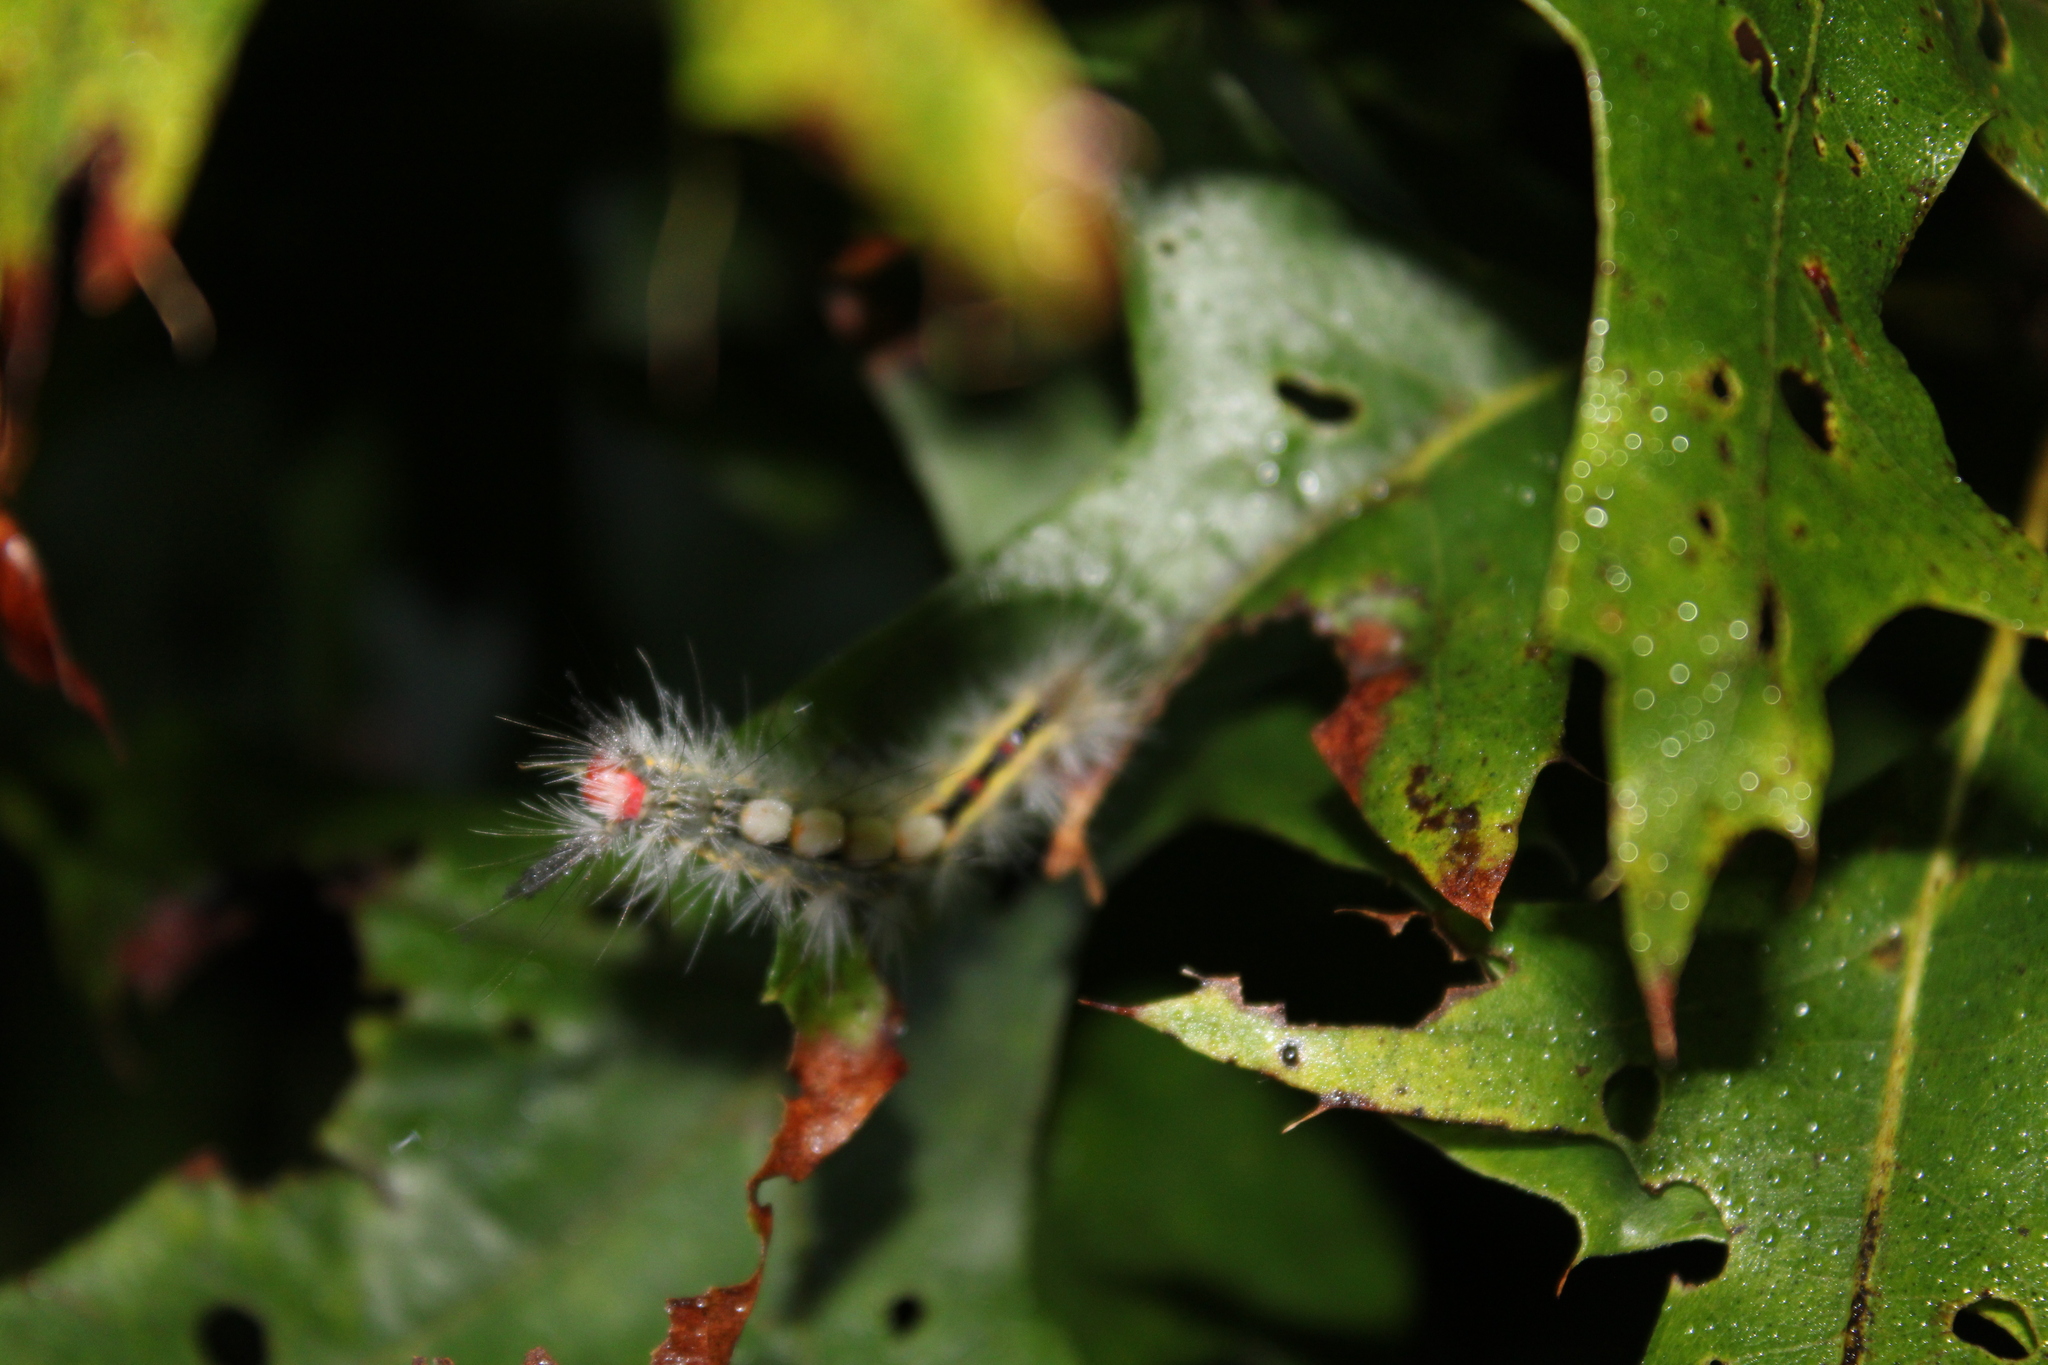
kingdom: Animalia
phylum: Arthropoda
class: Insecta
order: Lepidoptera
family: Erebidae
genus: Orgyia
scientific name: Orgyia leucostigma
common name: White-marked tussock moth
